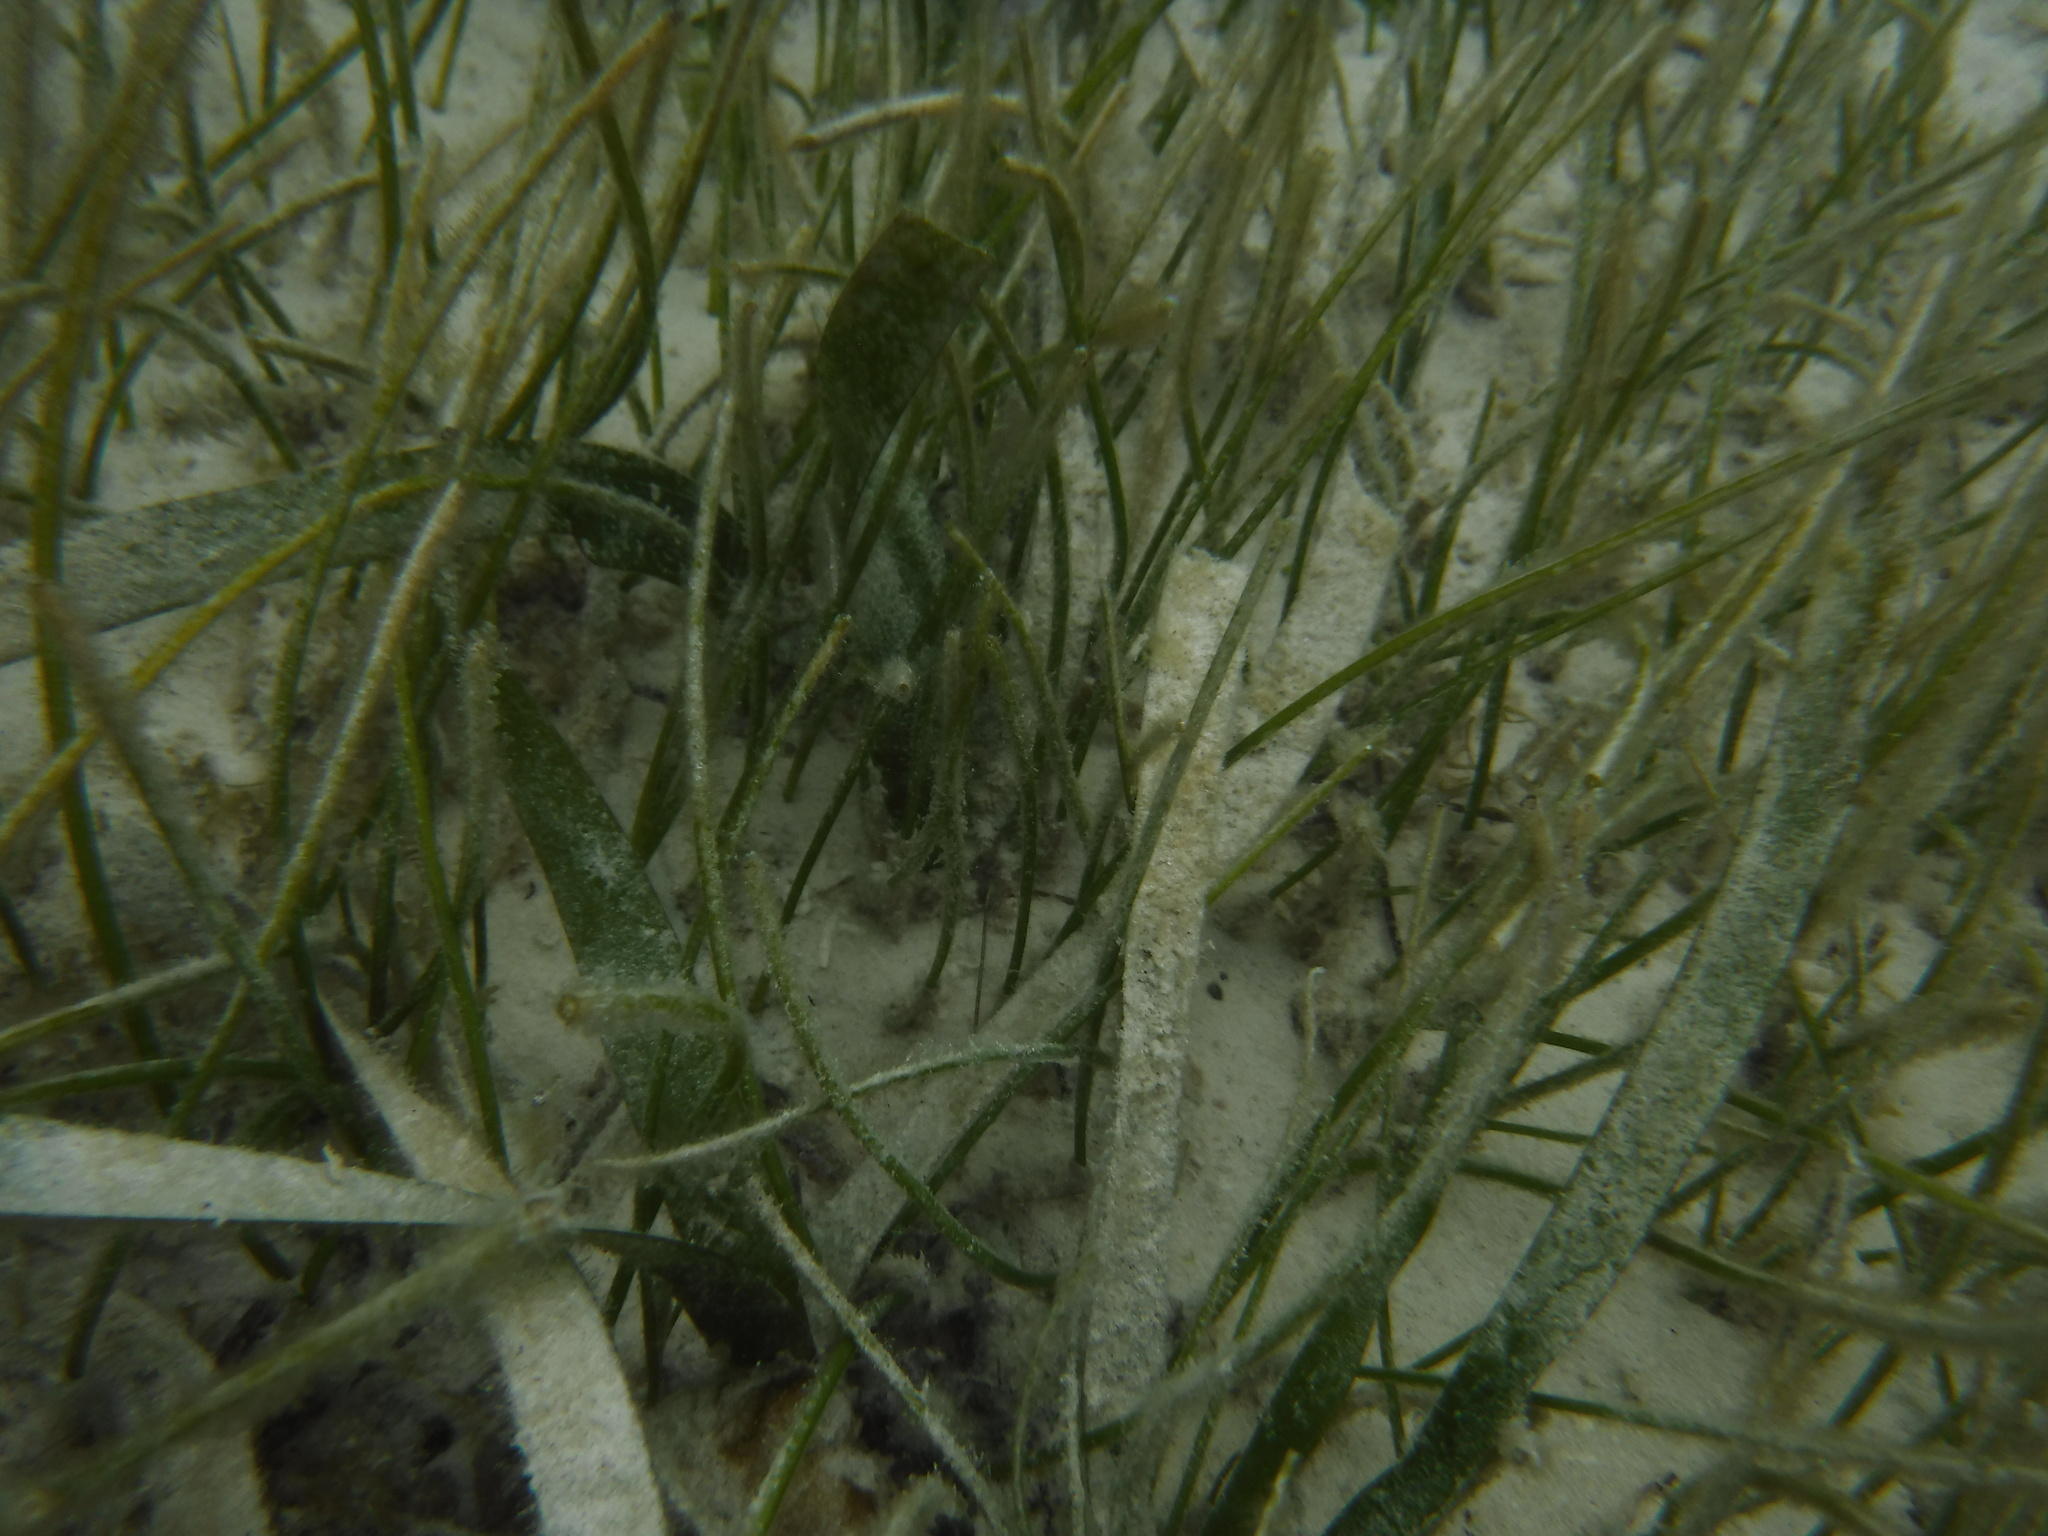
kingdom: Plantae
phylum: Tracheophyta
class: Liliopsida
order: Alismatales
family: Hydrocharitaceae
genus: Thalassia
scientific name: Thalassia testudinum
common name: Species code: tt
